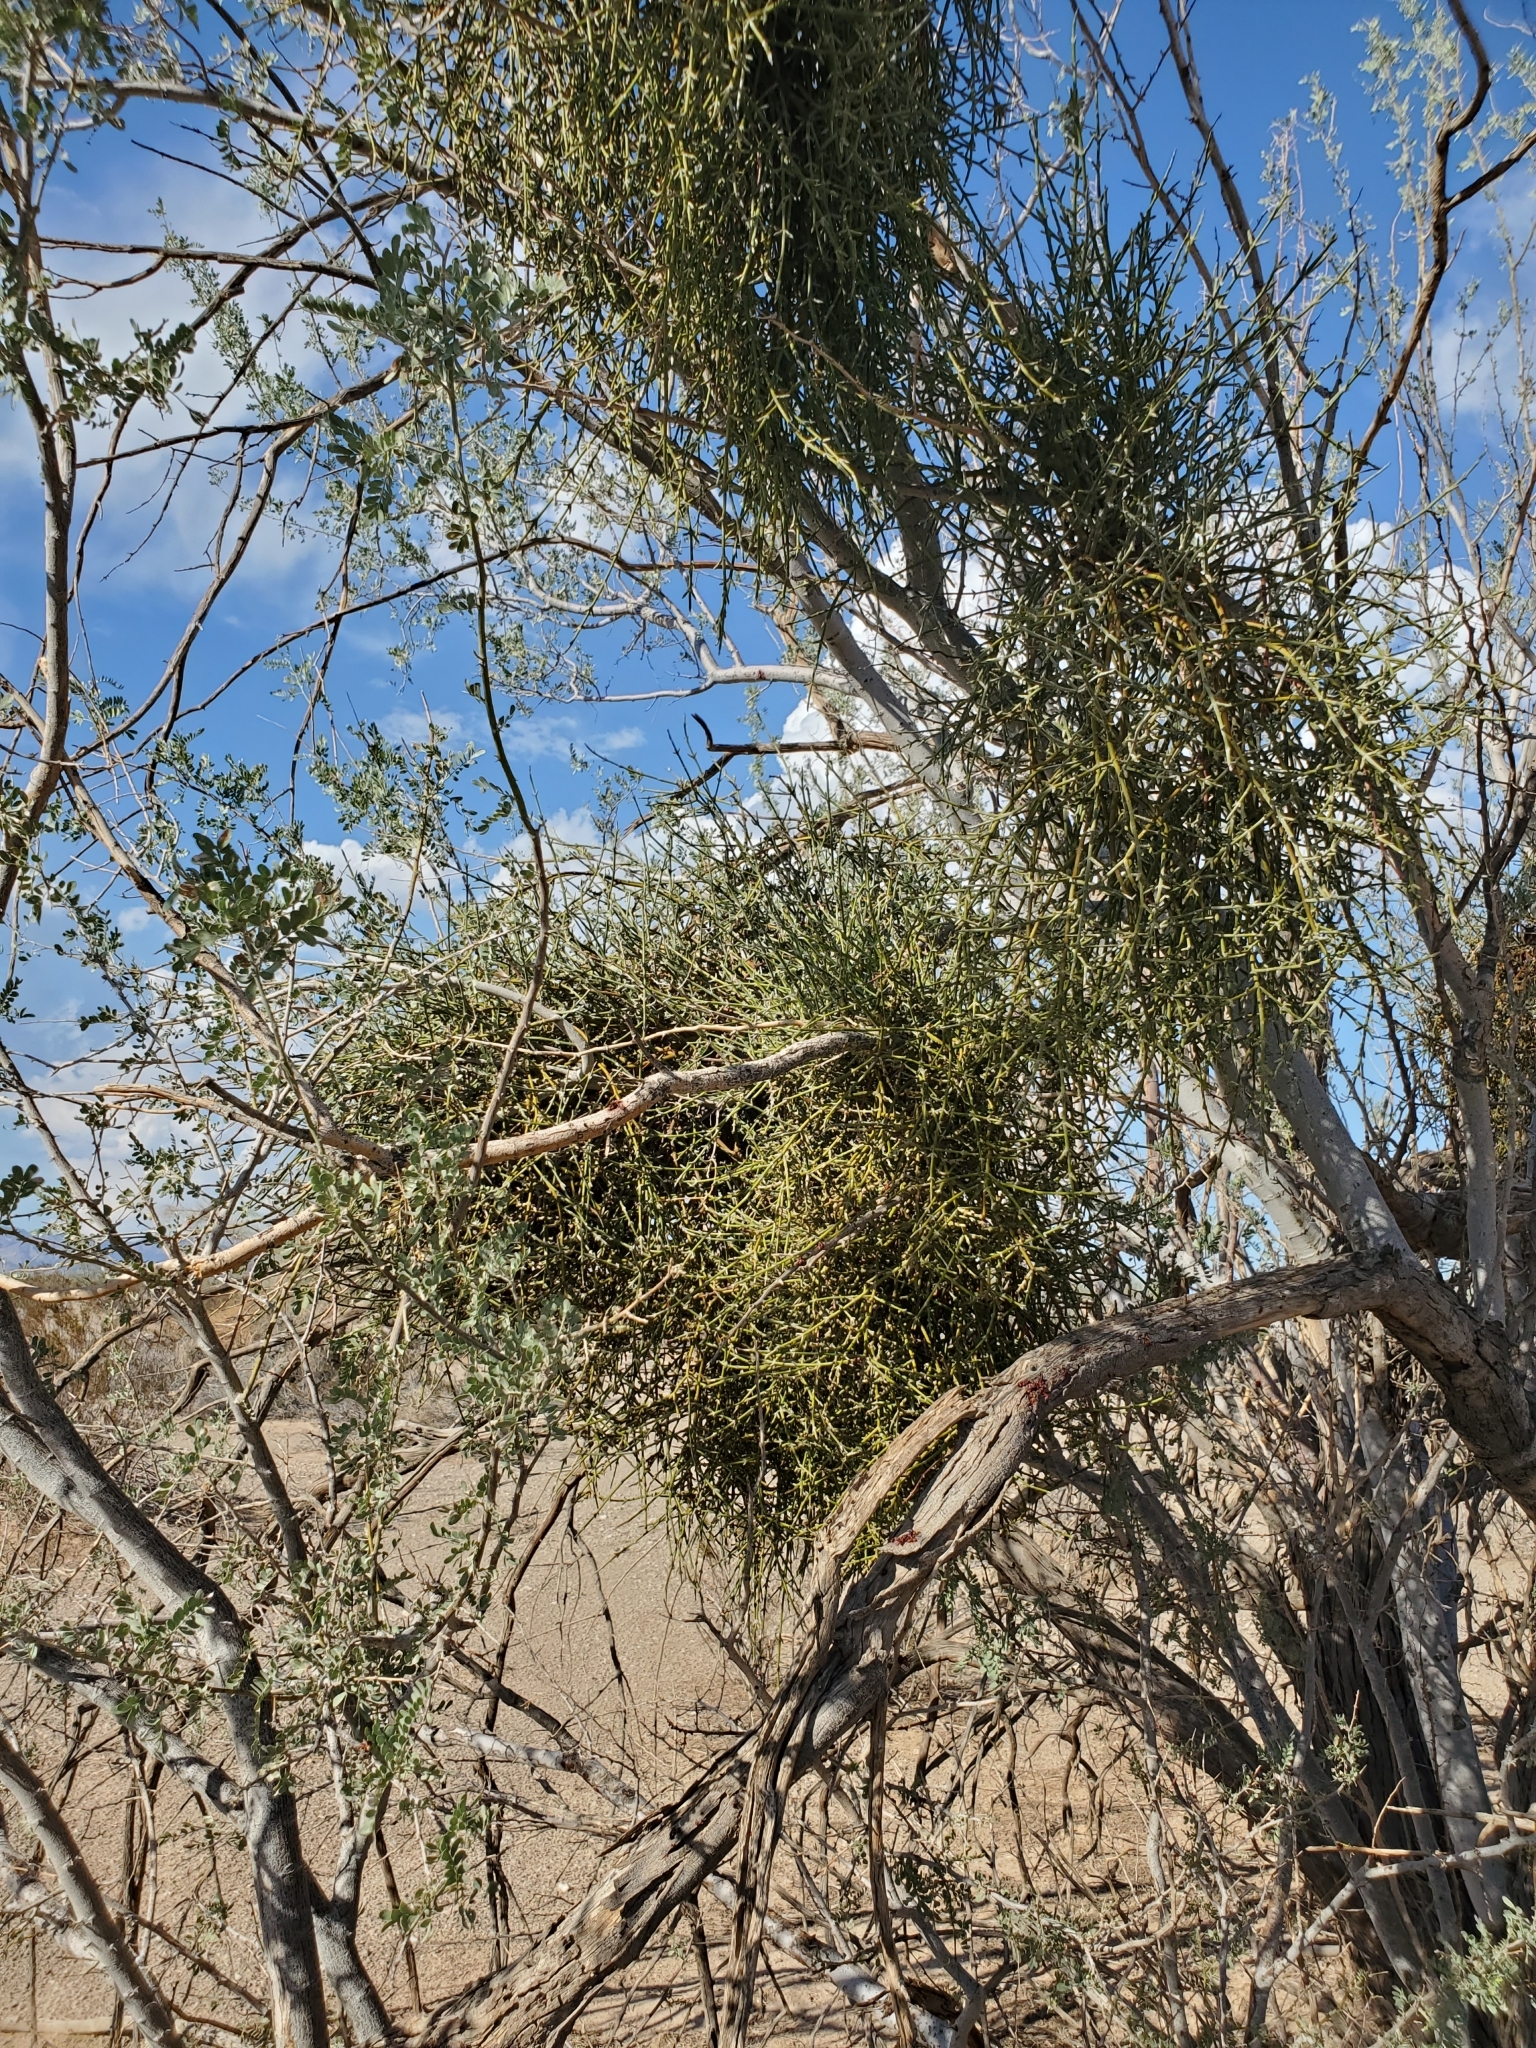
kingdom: Plantae
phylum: Tracheophyta
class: Magnoliopsida
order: Fabales
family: Fabaceae
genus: Olneya
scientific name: Olneya tesota
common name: Desert ironwood
